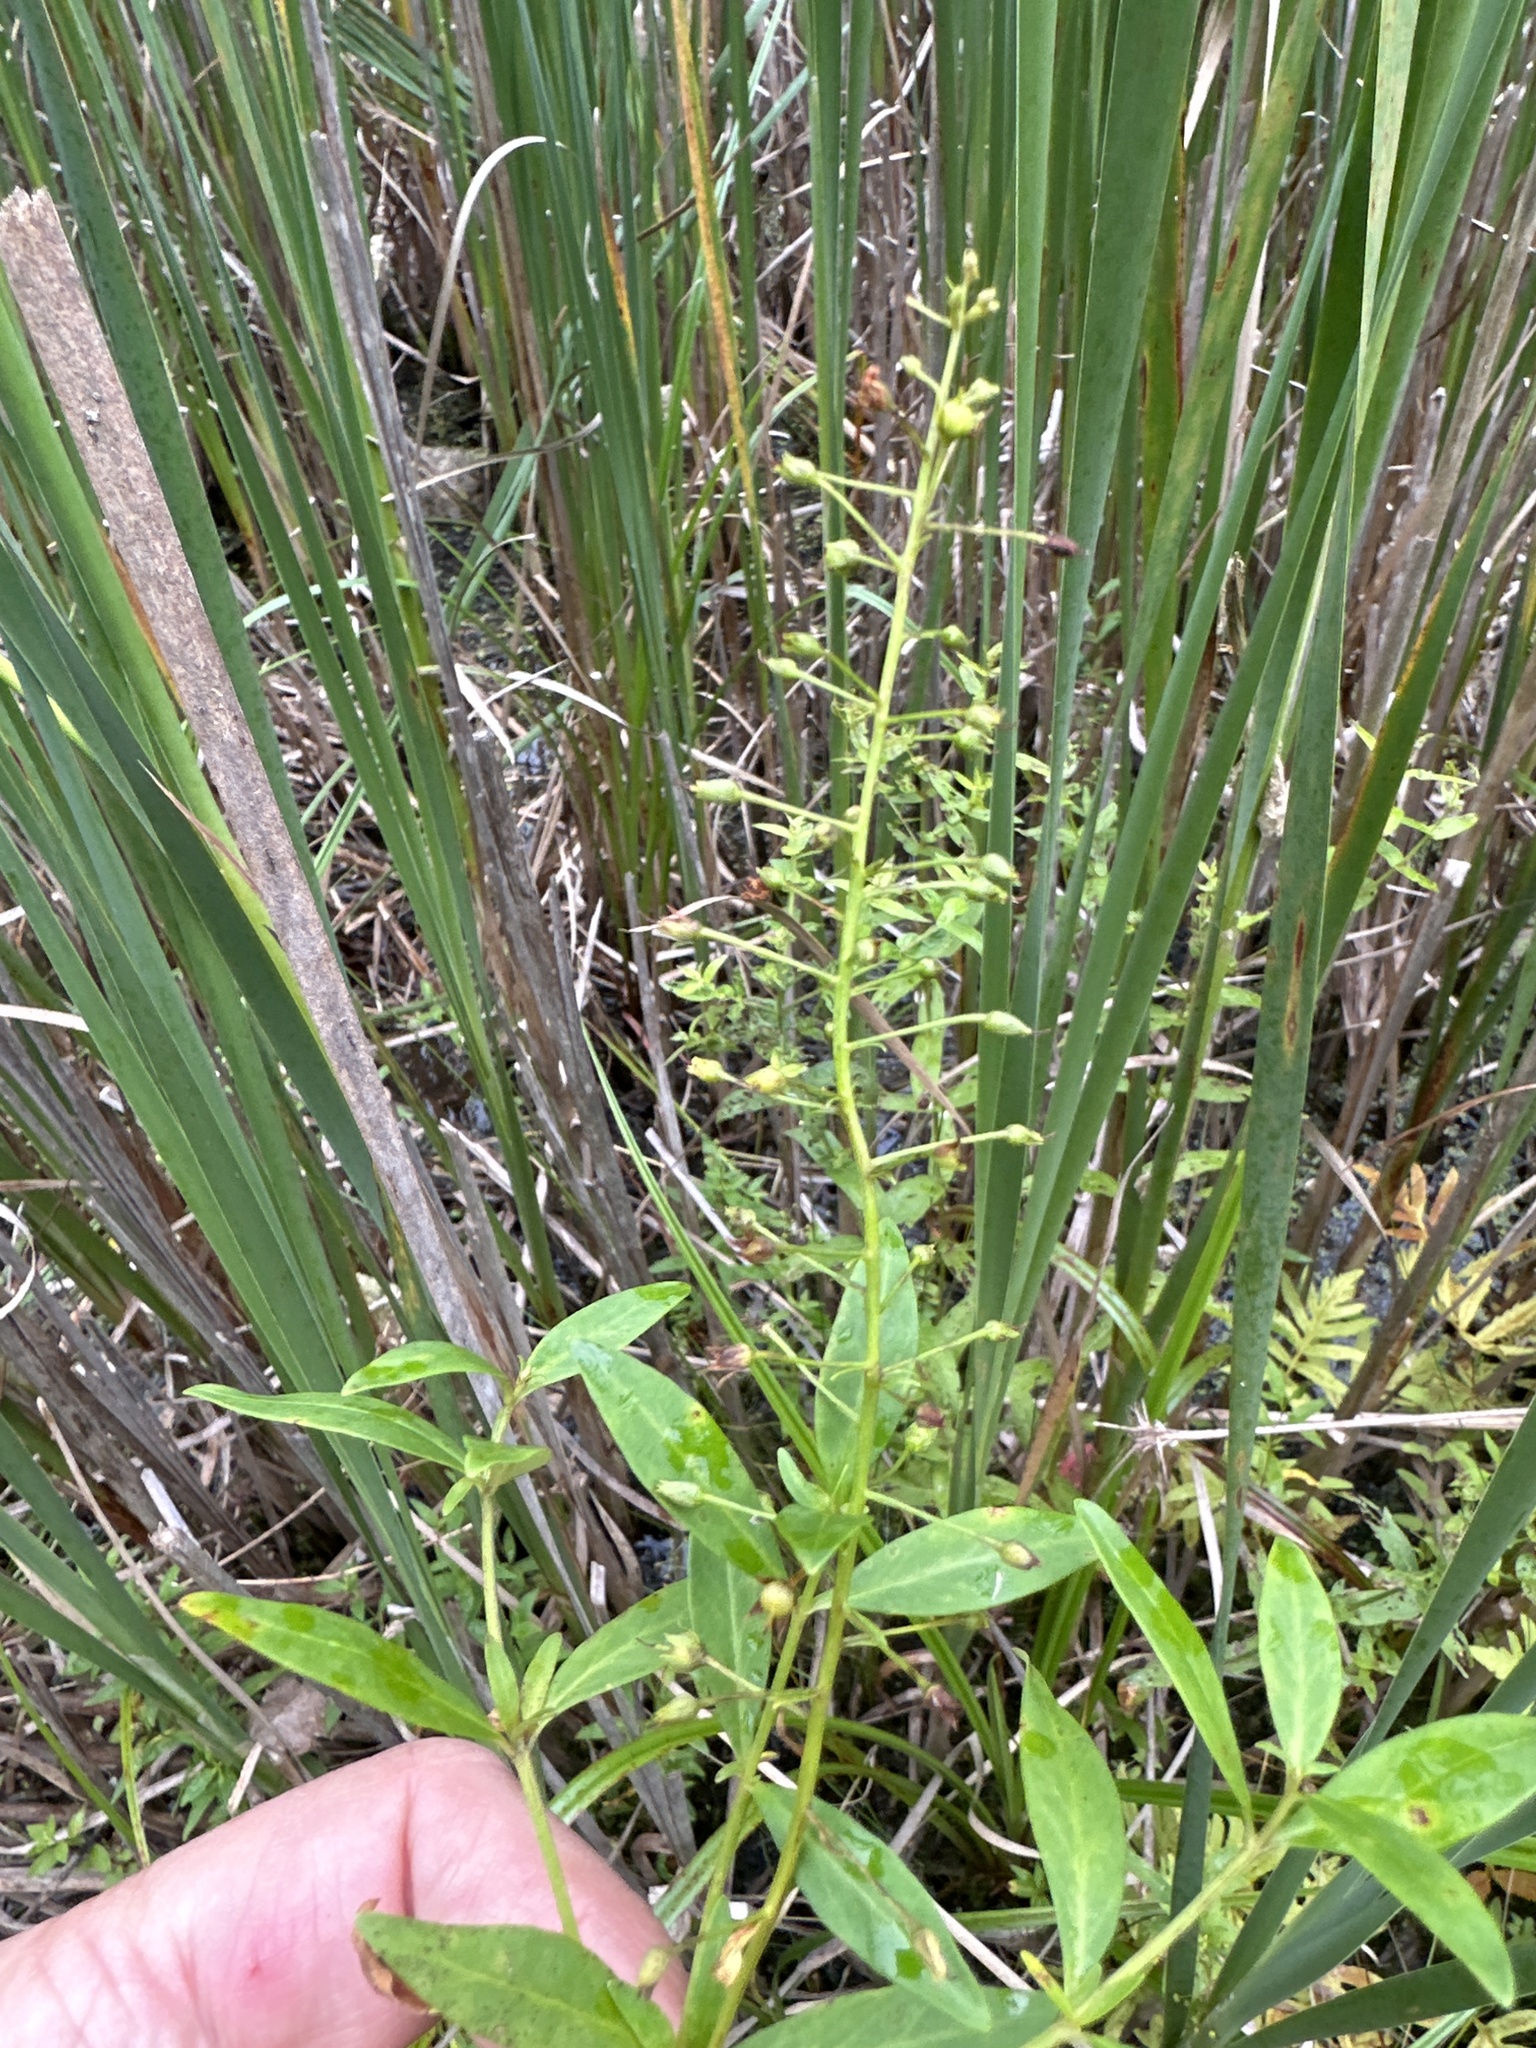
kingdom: Plantae
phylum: Tracheophyta
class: Magnoliopsida
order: Ericales
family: Primulaceae
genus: Lysimachia
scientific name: Lysimachia terrestris
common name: Lake loosestrife
